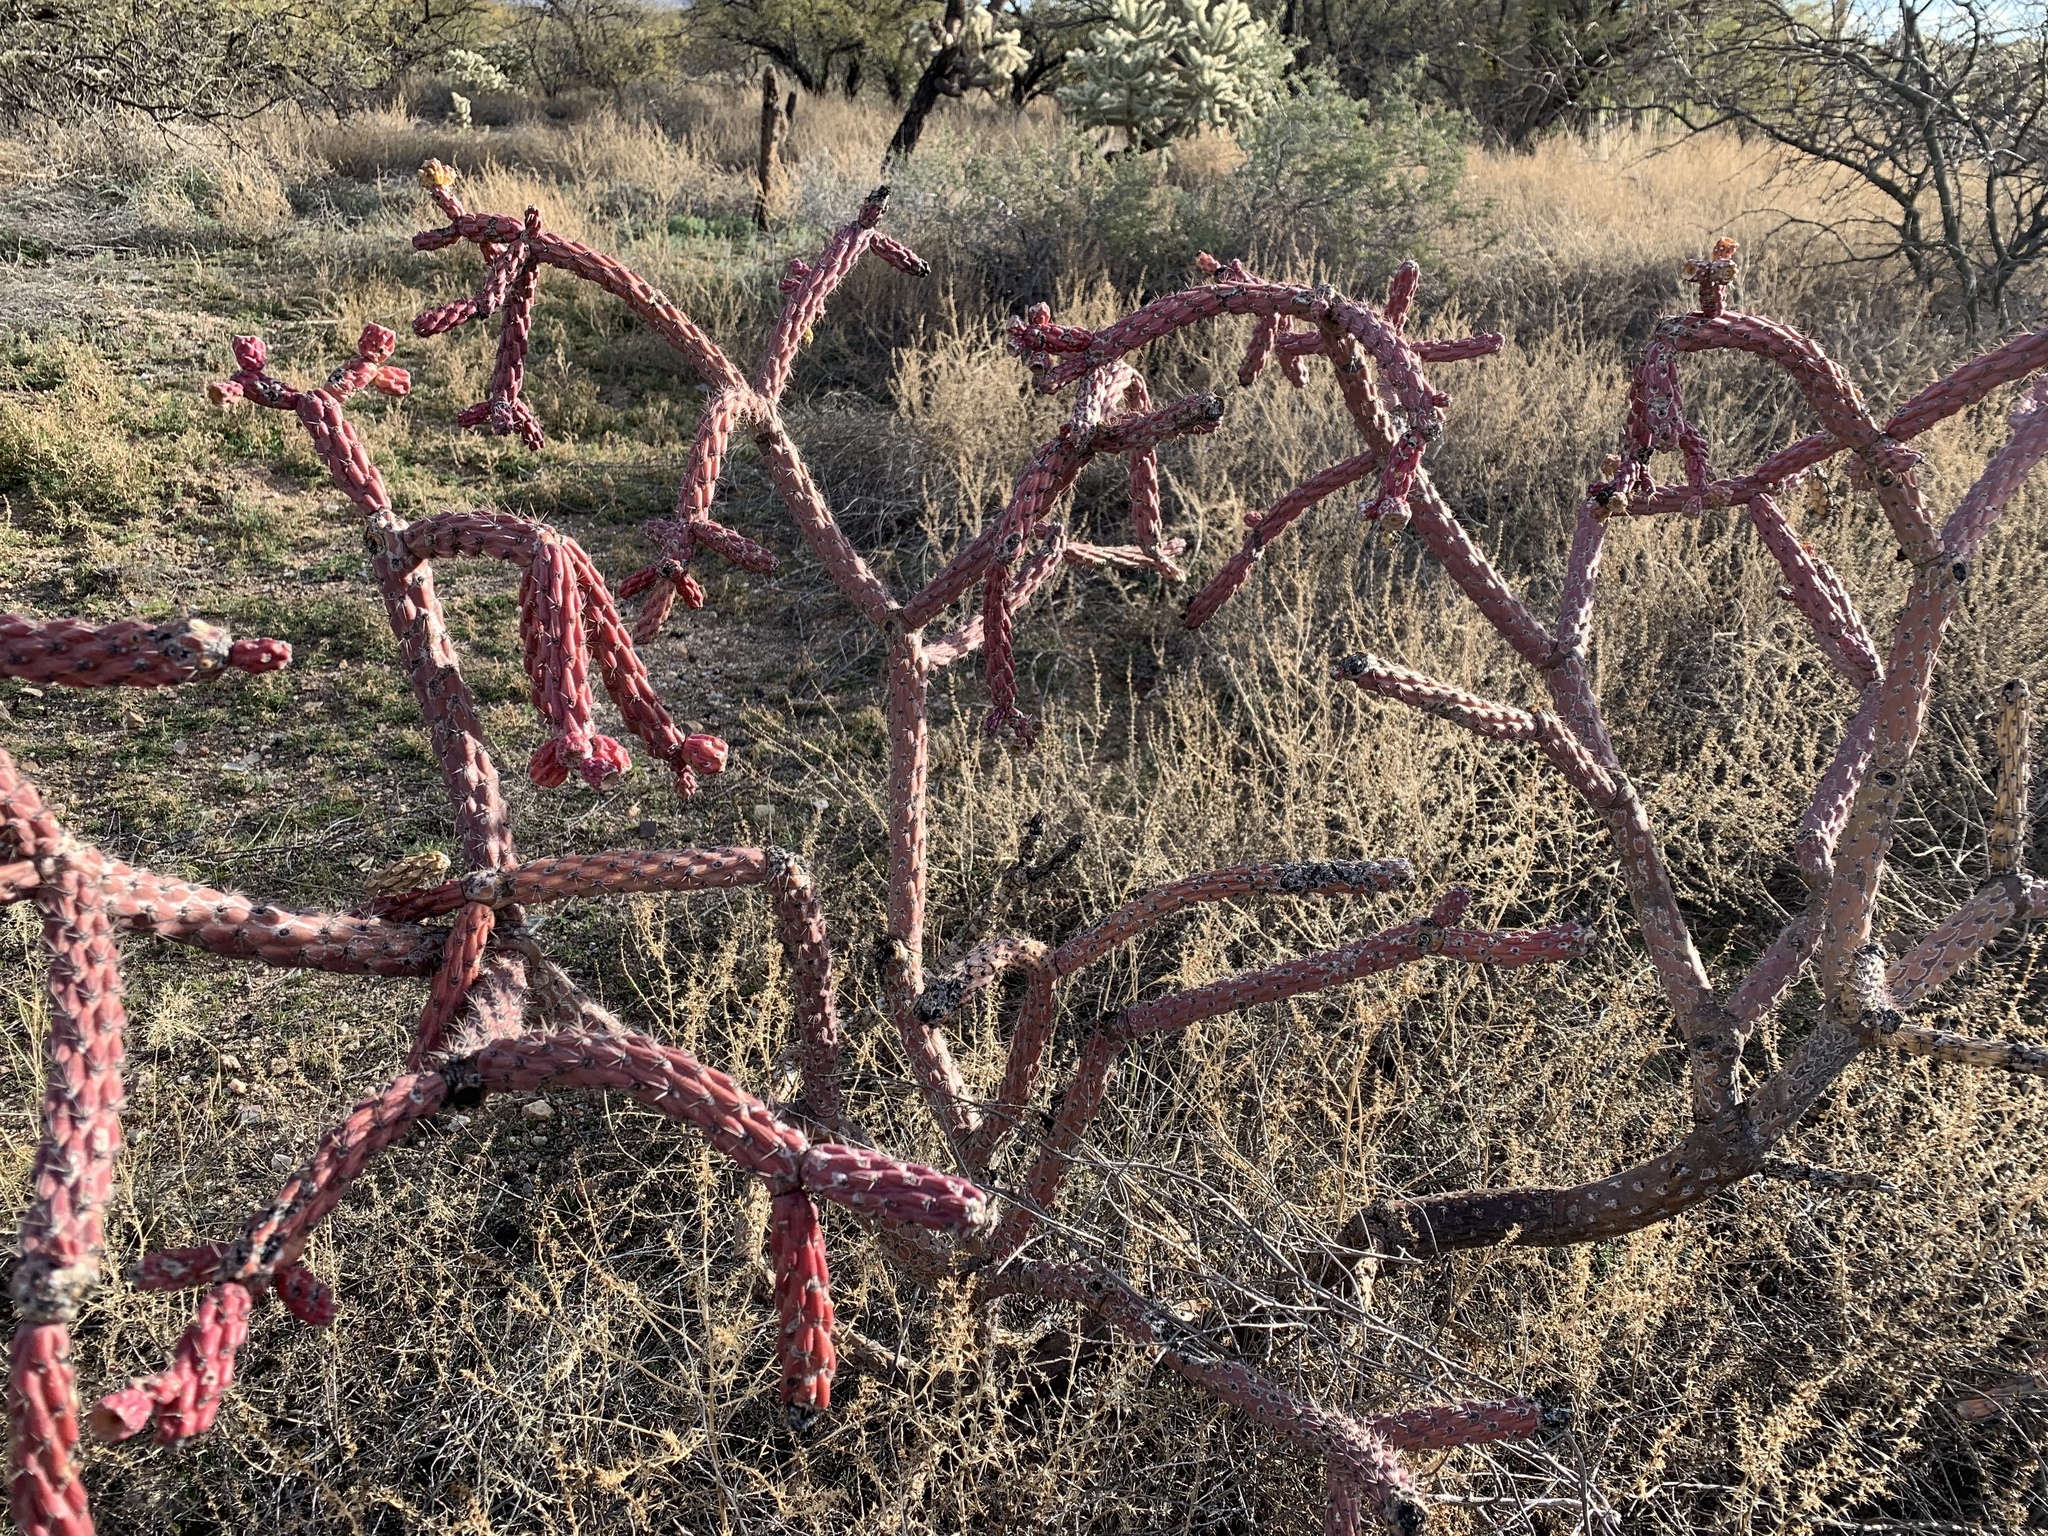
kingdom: Plantae
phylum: Tracheophyta
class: Magnoliopsida
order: Caryophyllales
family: Cactaceae
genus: Cylindropuntia
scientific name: Cylindropuntia thurberi
